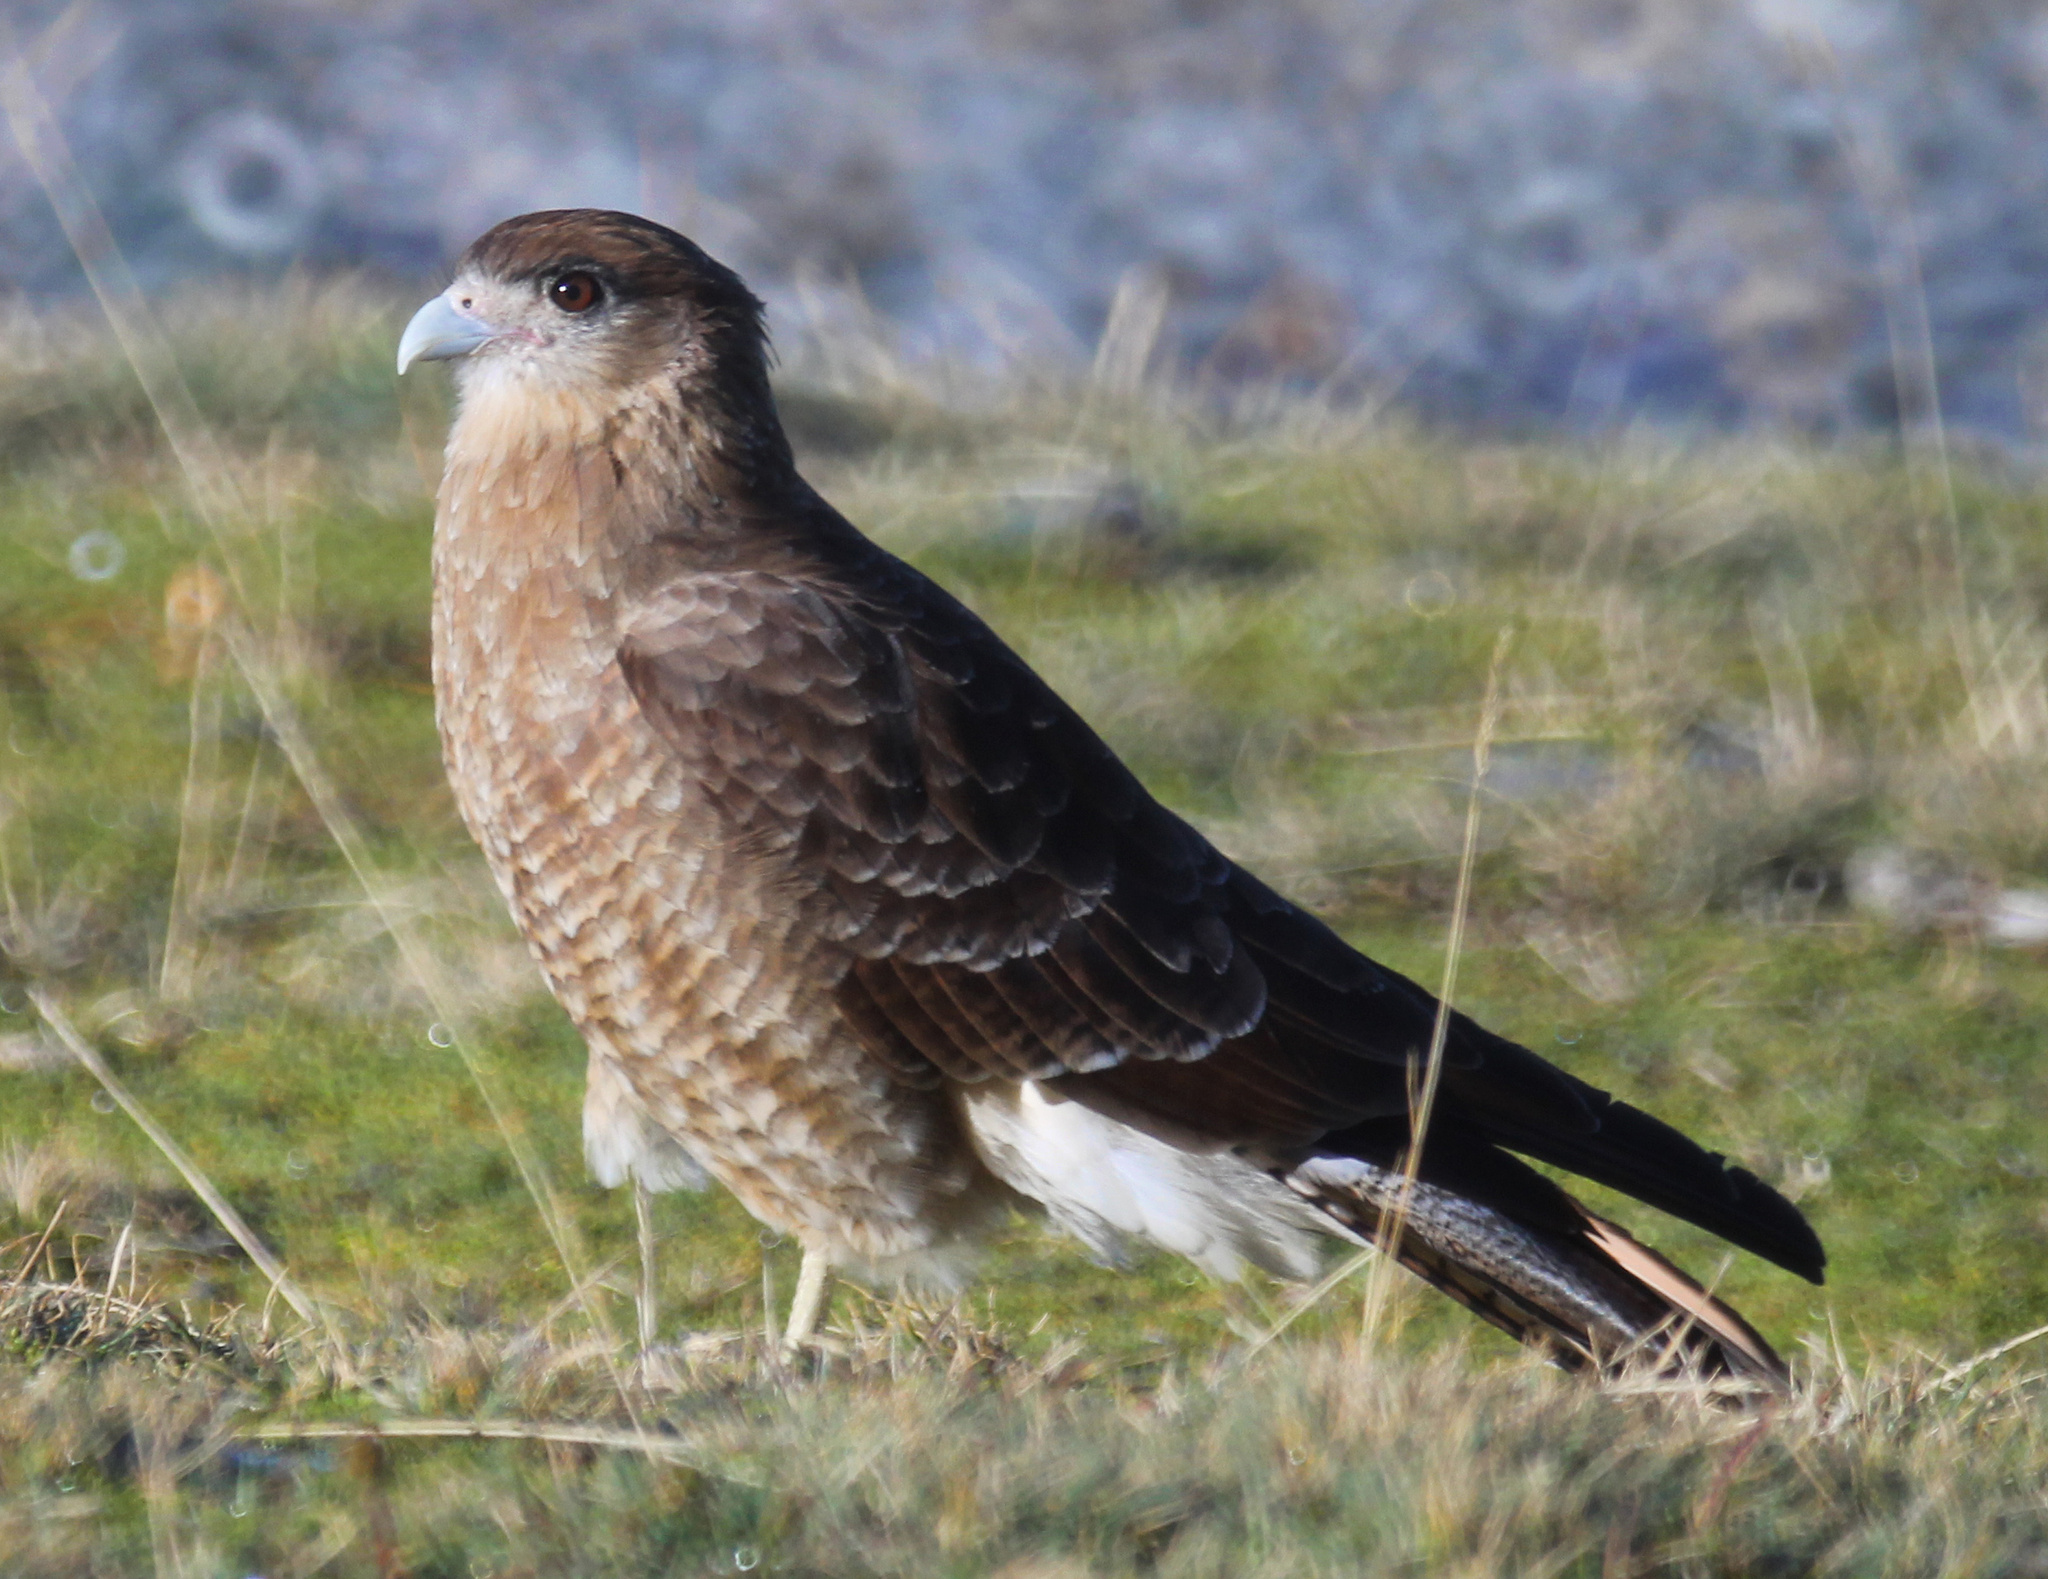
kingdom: Animalia
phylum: Chordata
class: Aves
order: Falconiformes
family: Falconidae
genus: Daptrius
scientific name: Daptrius
